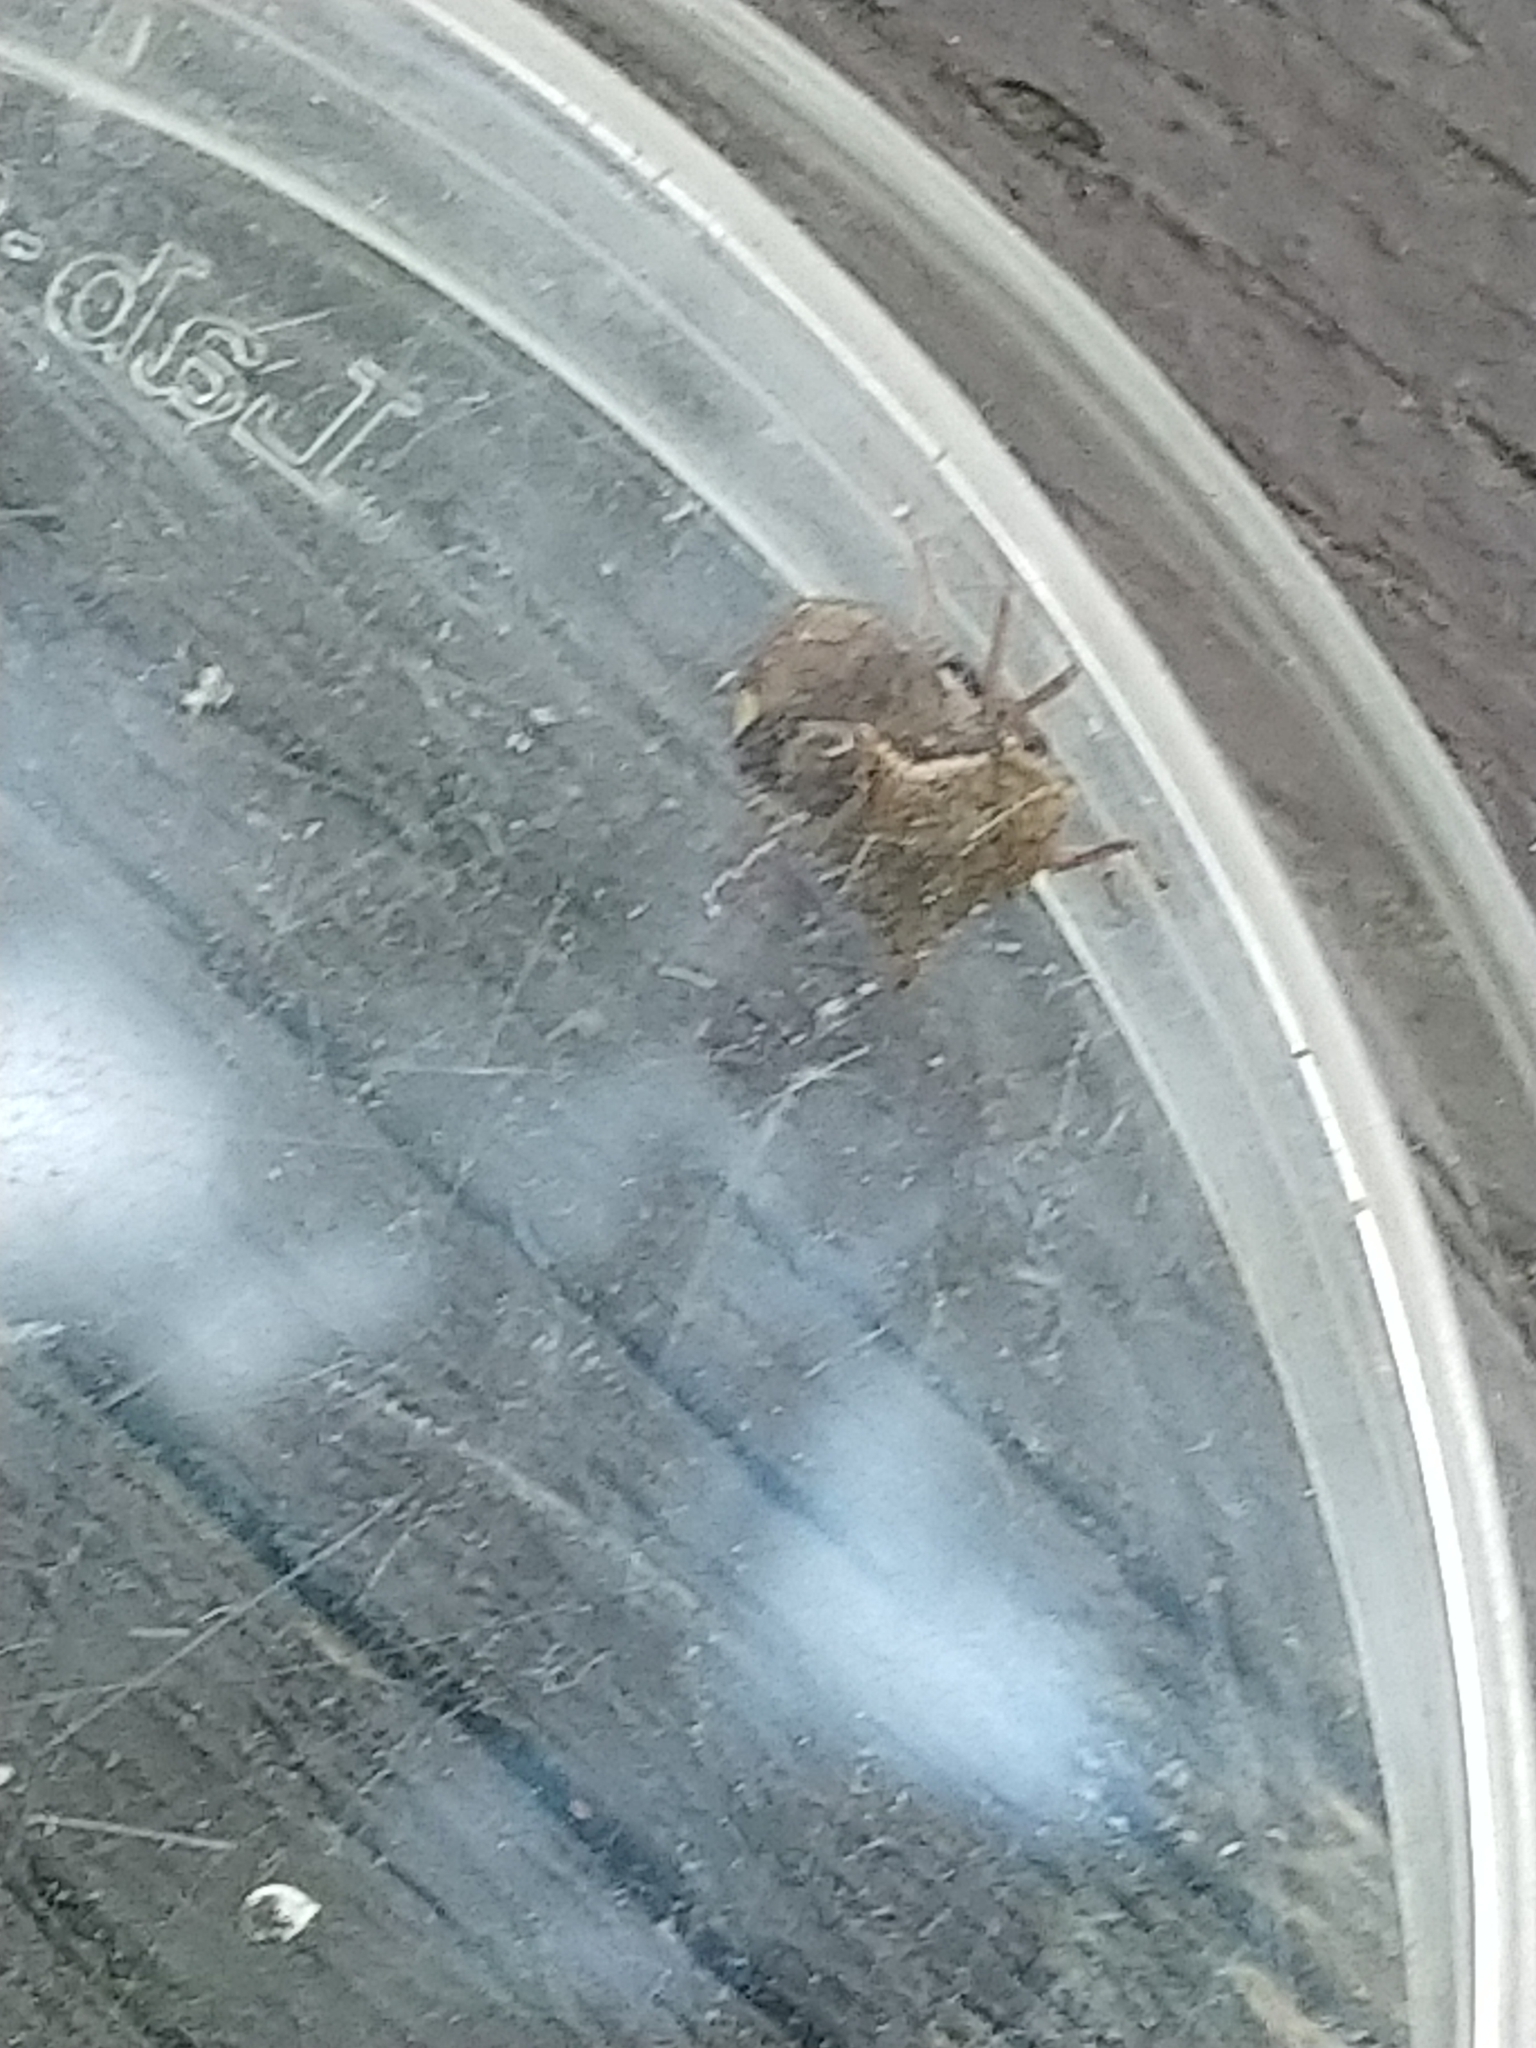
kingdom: Animalia
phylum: Arthropoda
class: Insecta
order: Hemiptera
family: Membracidae
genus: Stictocephala
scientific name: Stictocephala diceros
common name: Two-horned treehopper
